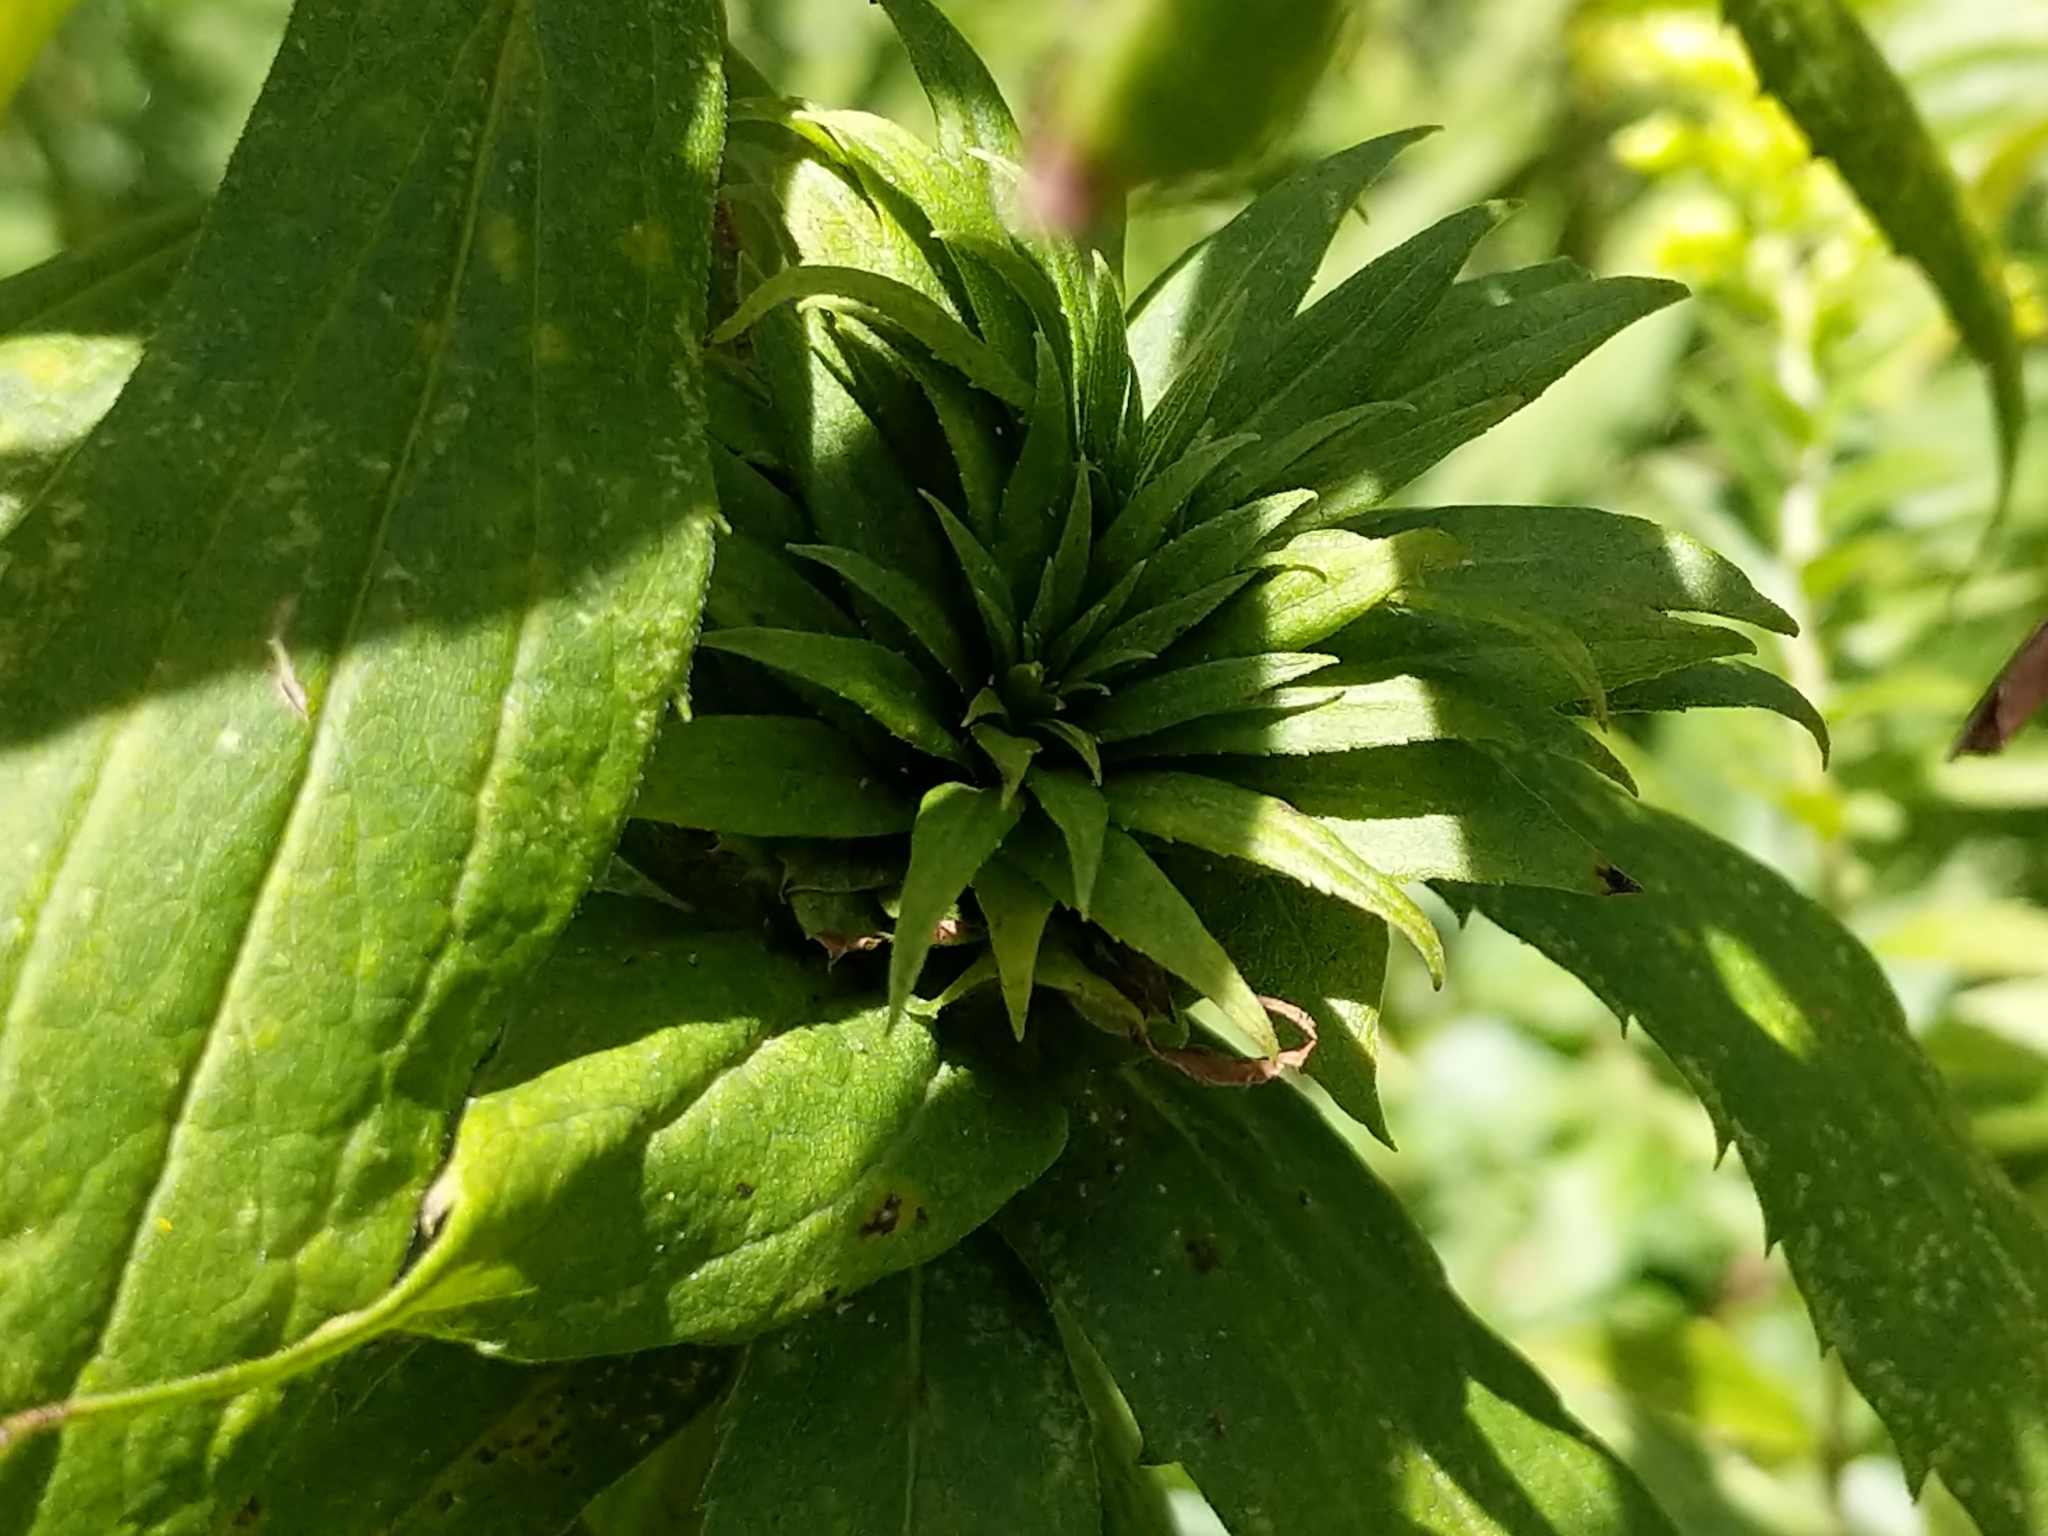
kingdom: Animalia
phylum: Arthropoda
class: Insecta
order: Diptera
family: Cecidomyiidae
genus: Rhopalomyia
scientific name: Rhopalomyia solidaginis
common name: Goldenrod bunch gall midge
